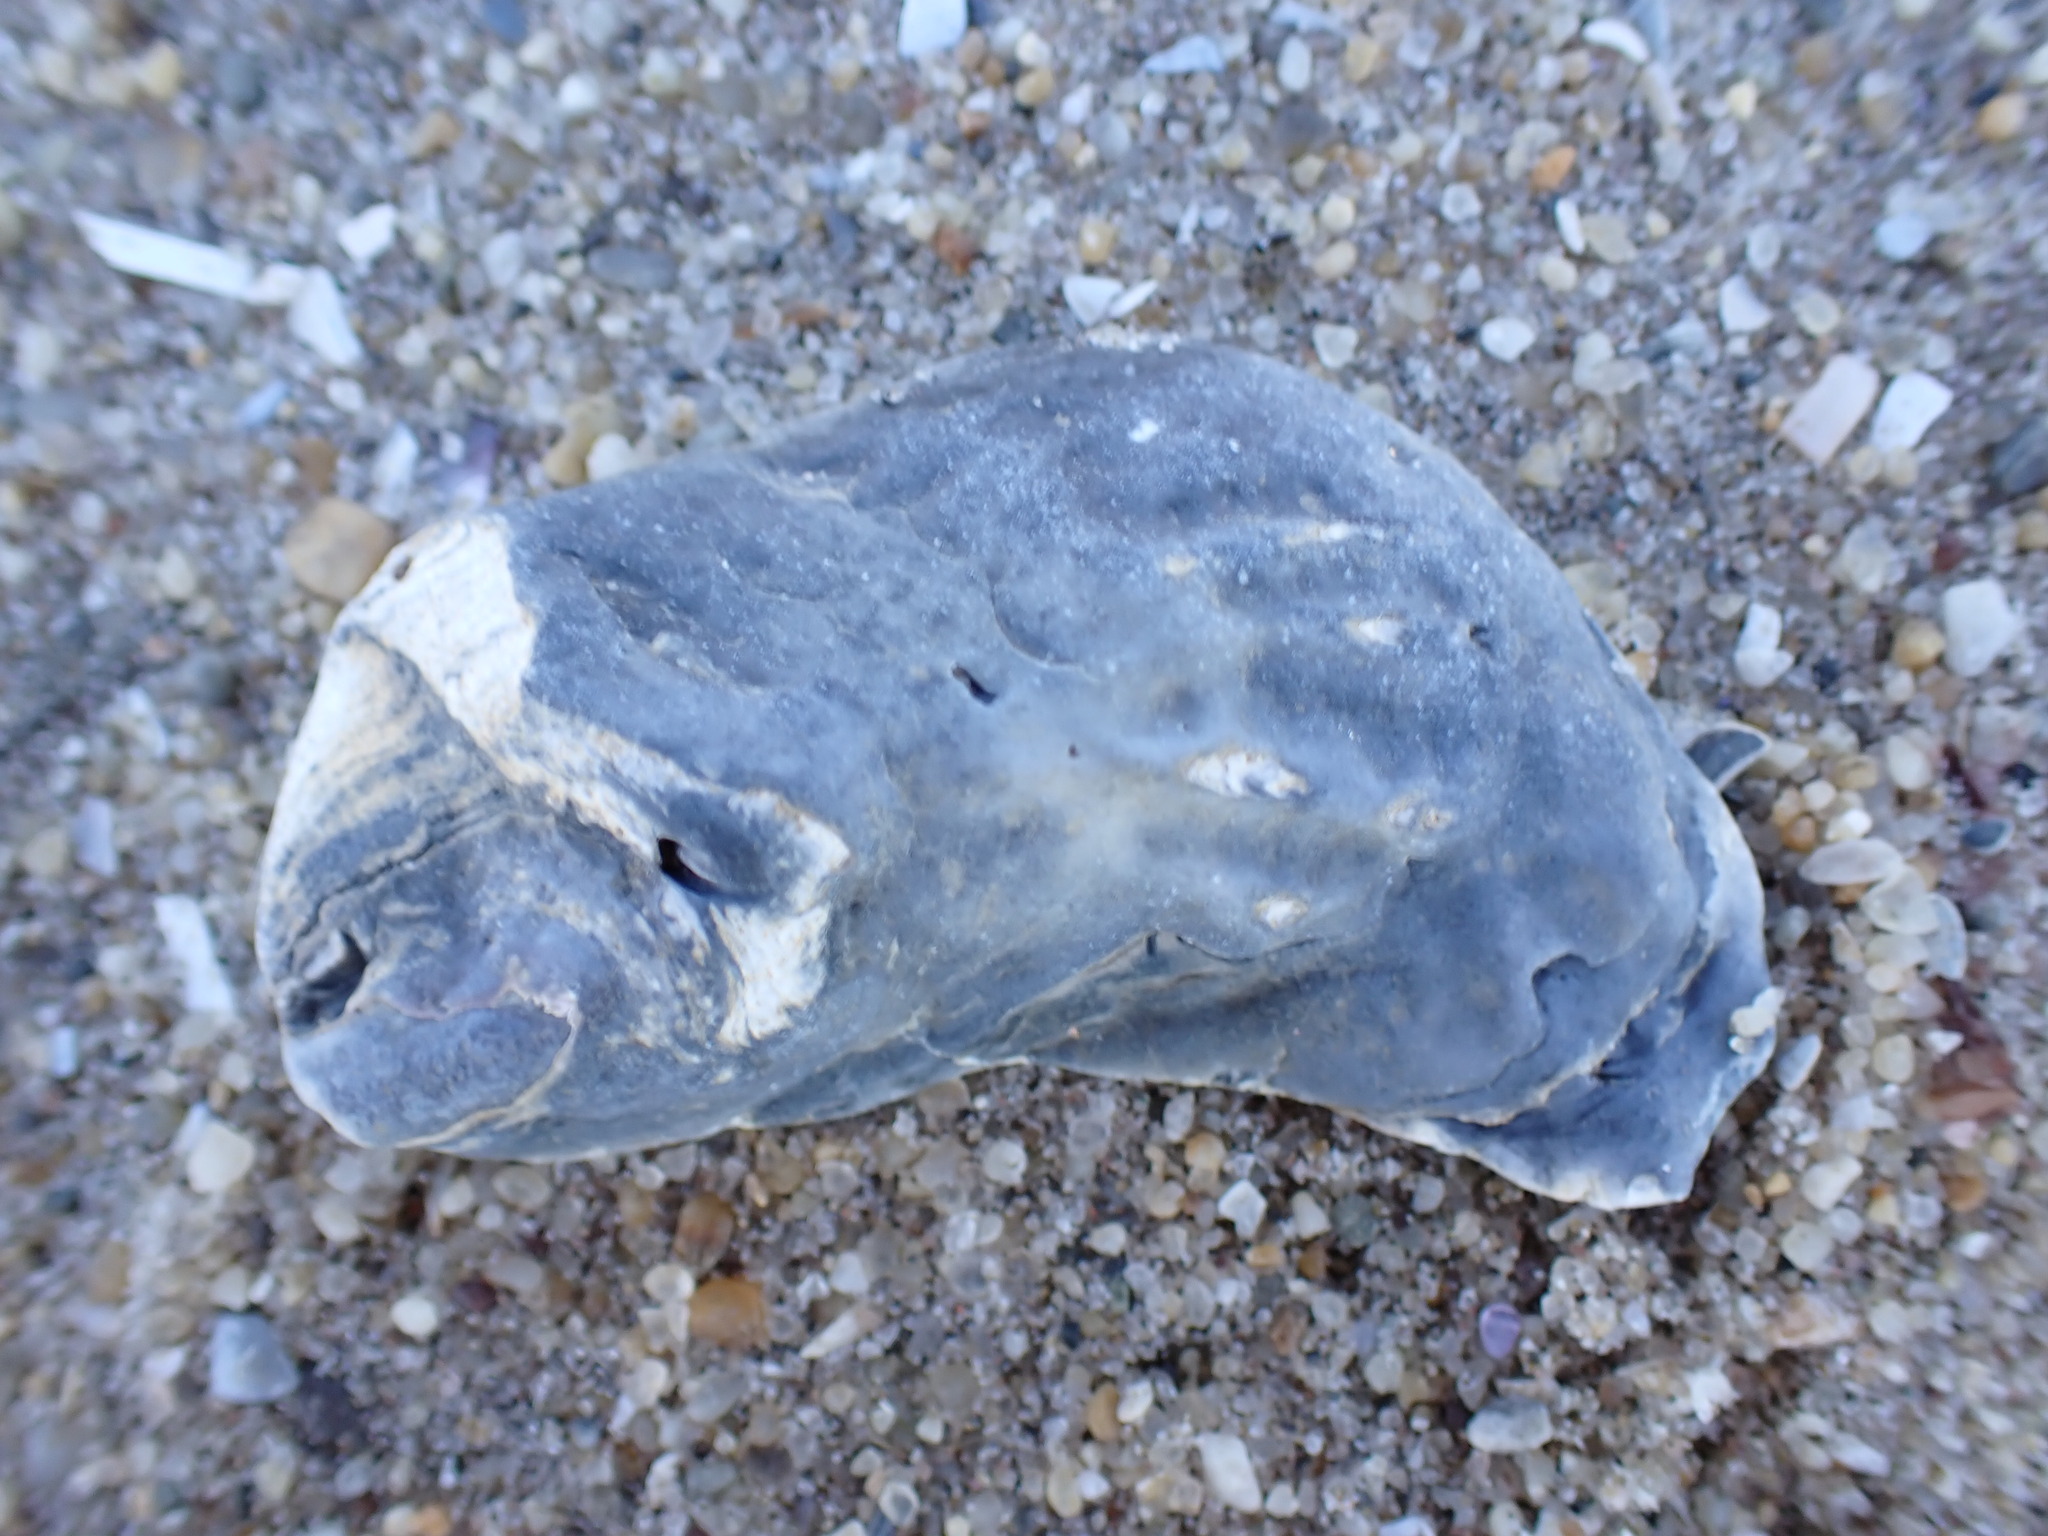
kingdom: Animalia
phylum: Mollusca
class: Bivalvia
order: Ostreida
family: Ostreidae
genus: Crassostrea
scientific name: Crassostrea virginica
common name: American oyster
